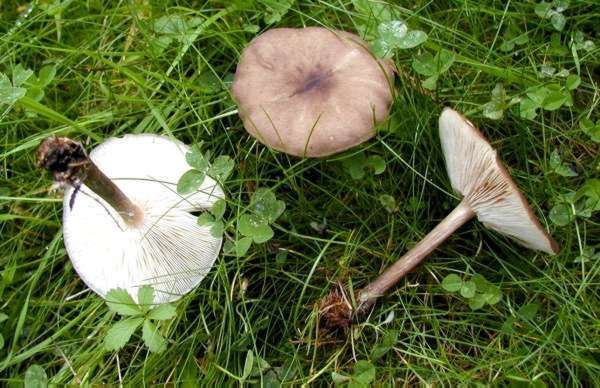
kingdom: Fungi
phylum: Basidiomycota
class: Agaricomycetes
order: Agaricales
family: Tricholomataceae
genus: Melanoleuca
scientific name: Melanoleuca humilis
